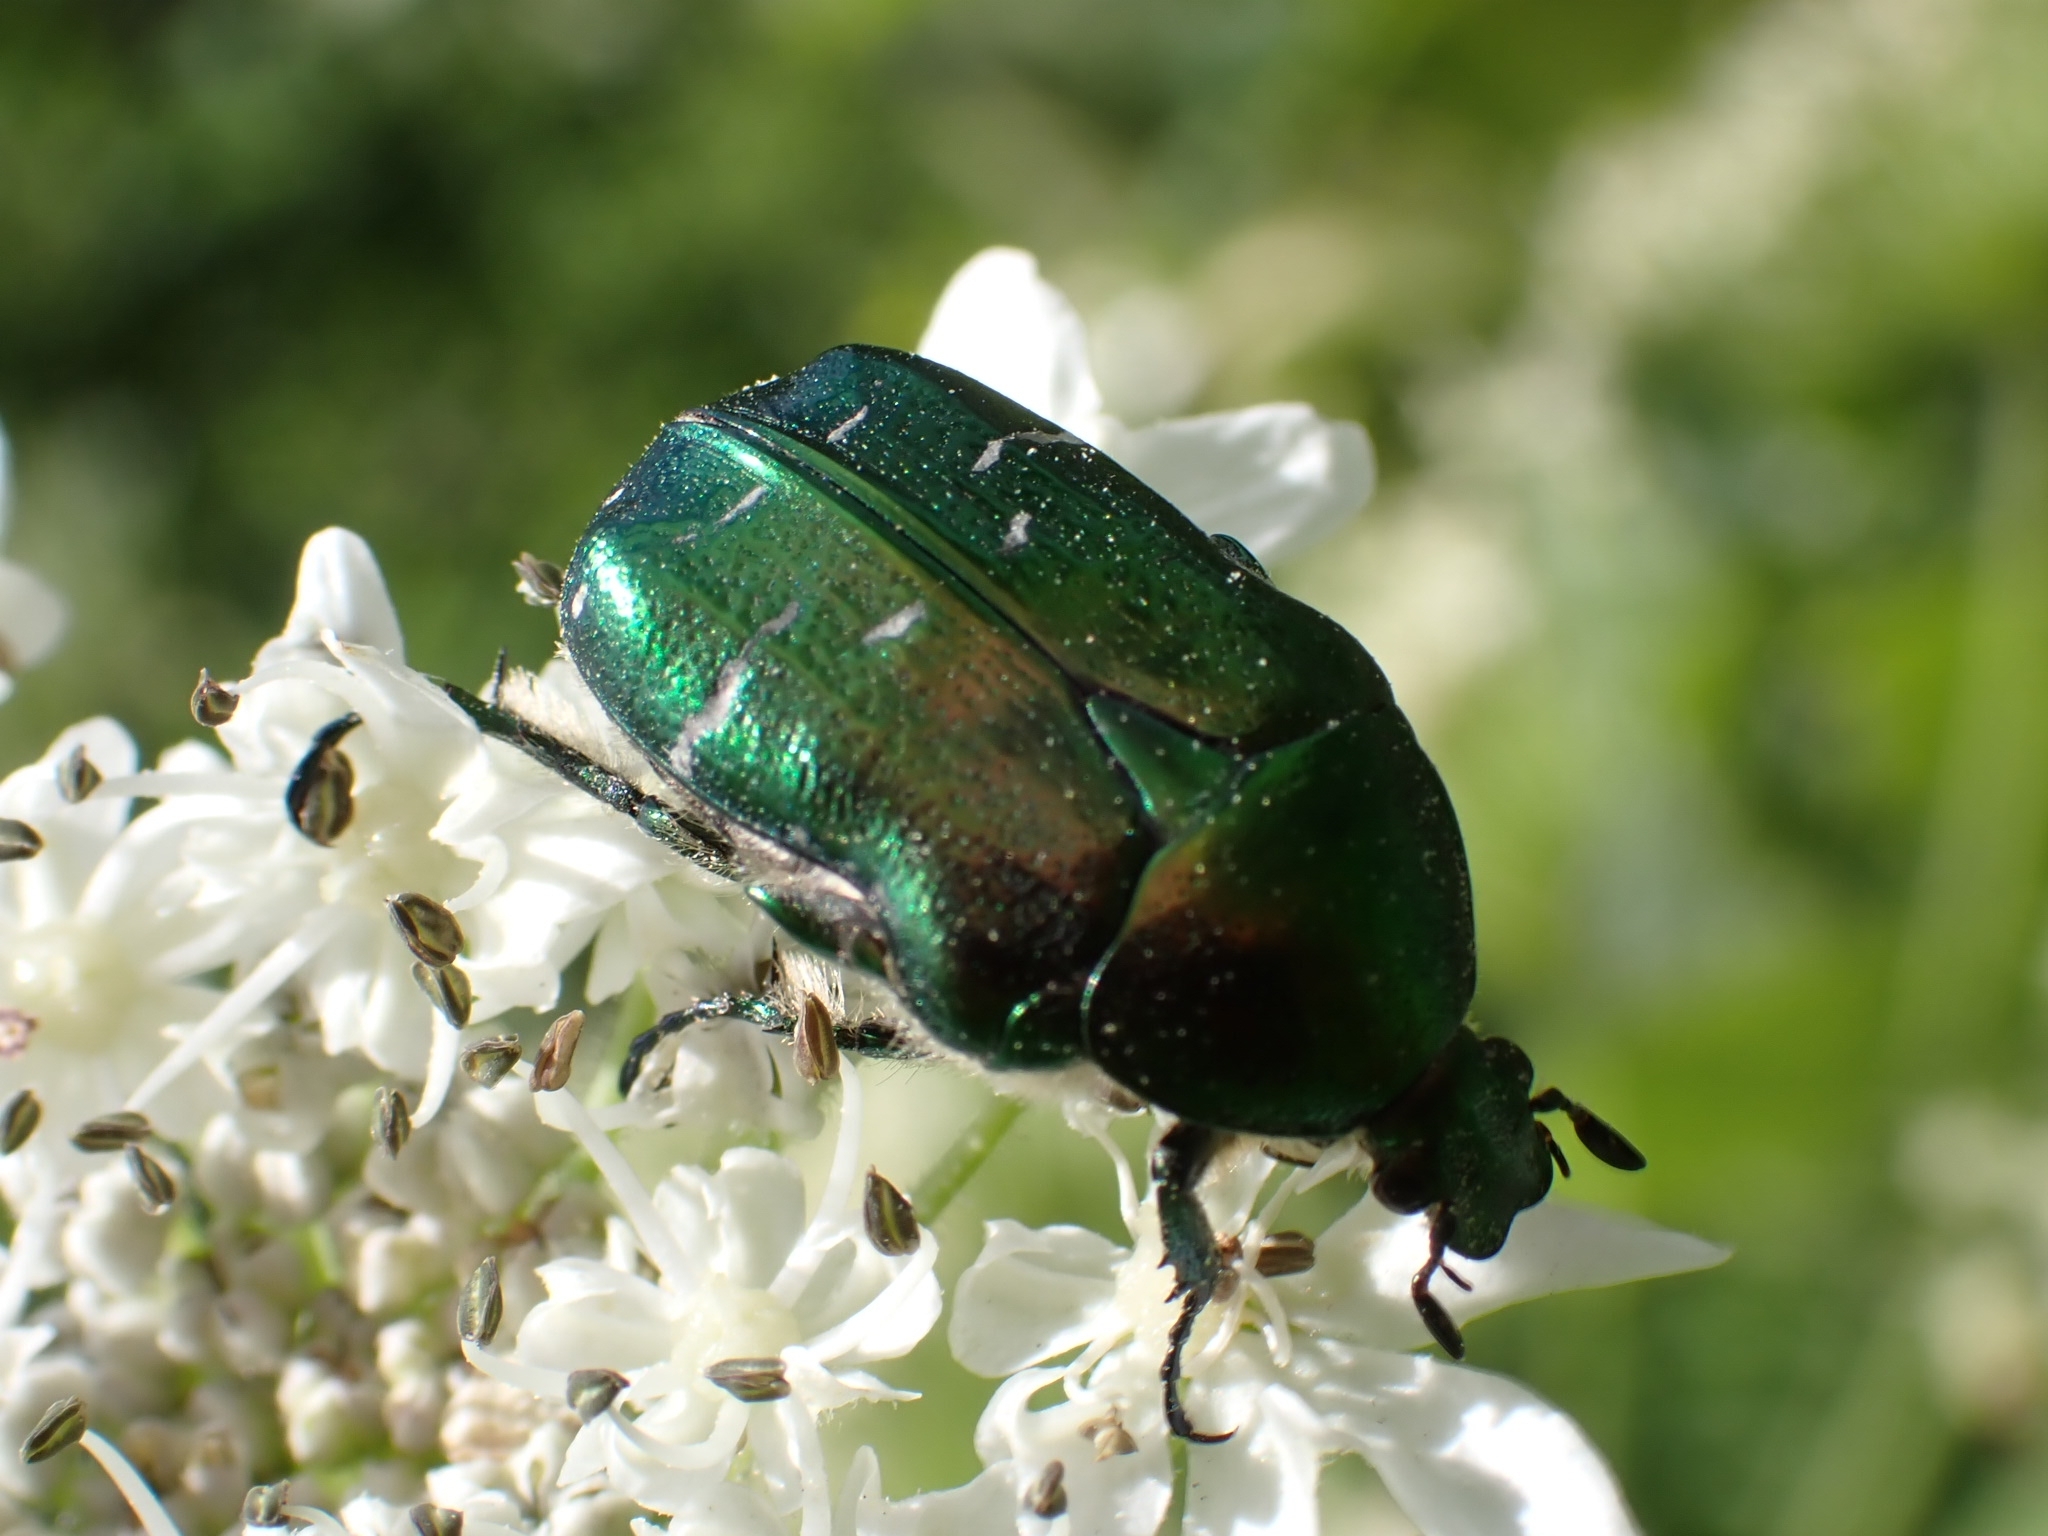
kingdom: Animalia
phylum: Arthropoda
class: Insecta
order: Coleoptera
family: Scarabaeidae
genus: Cetonia
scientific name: Cetonia aurata
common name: Rose chafer
